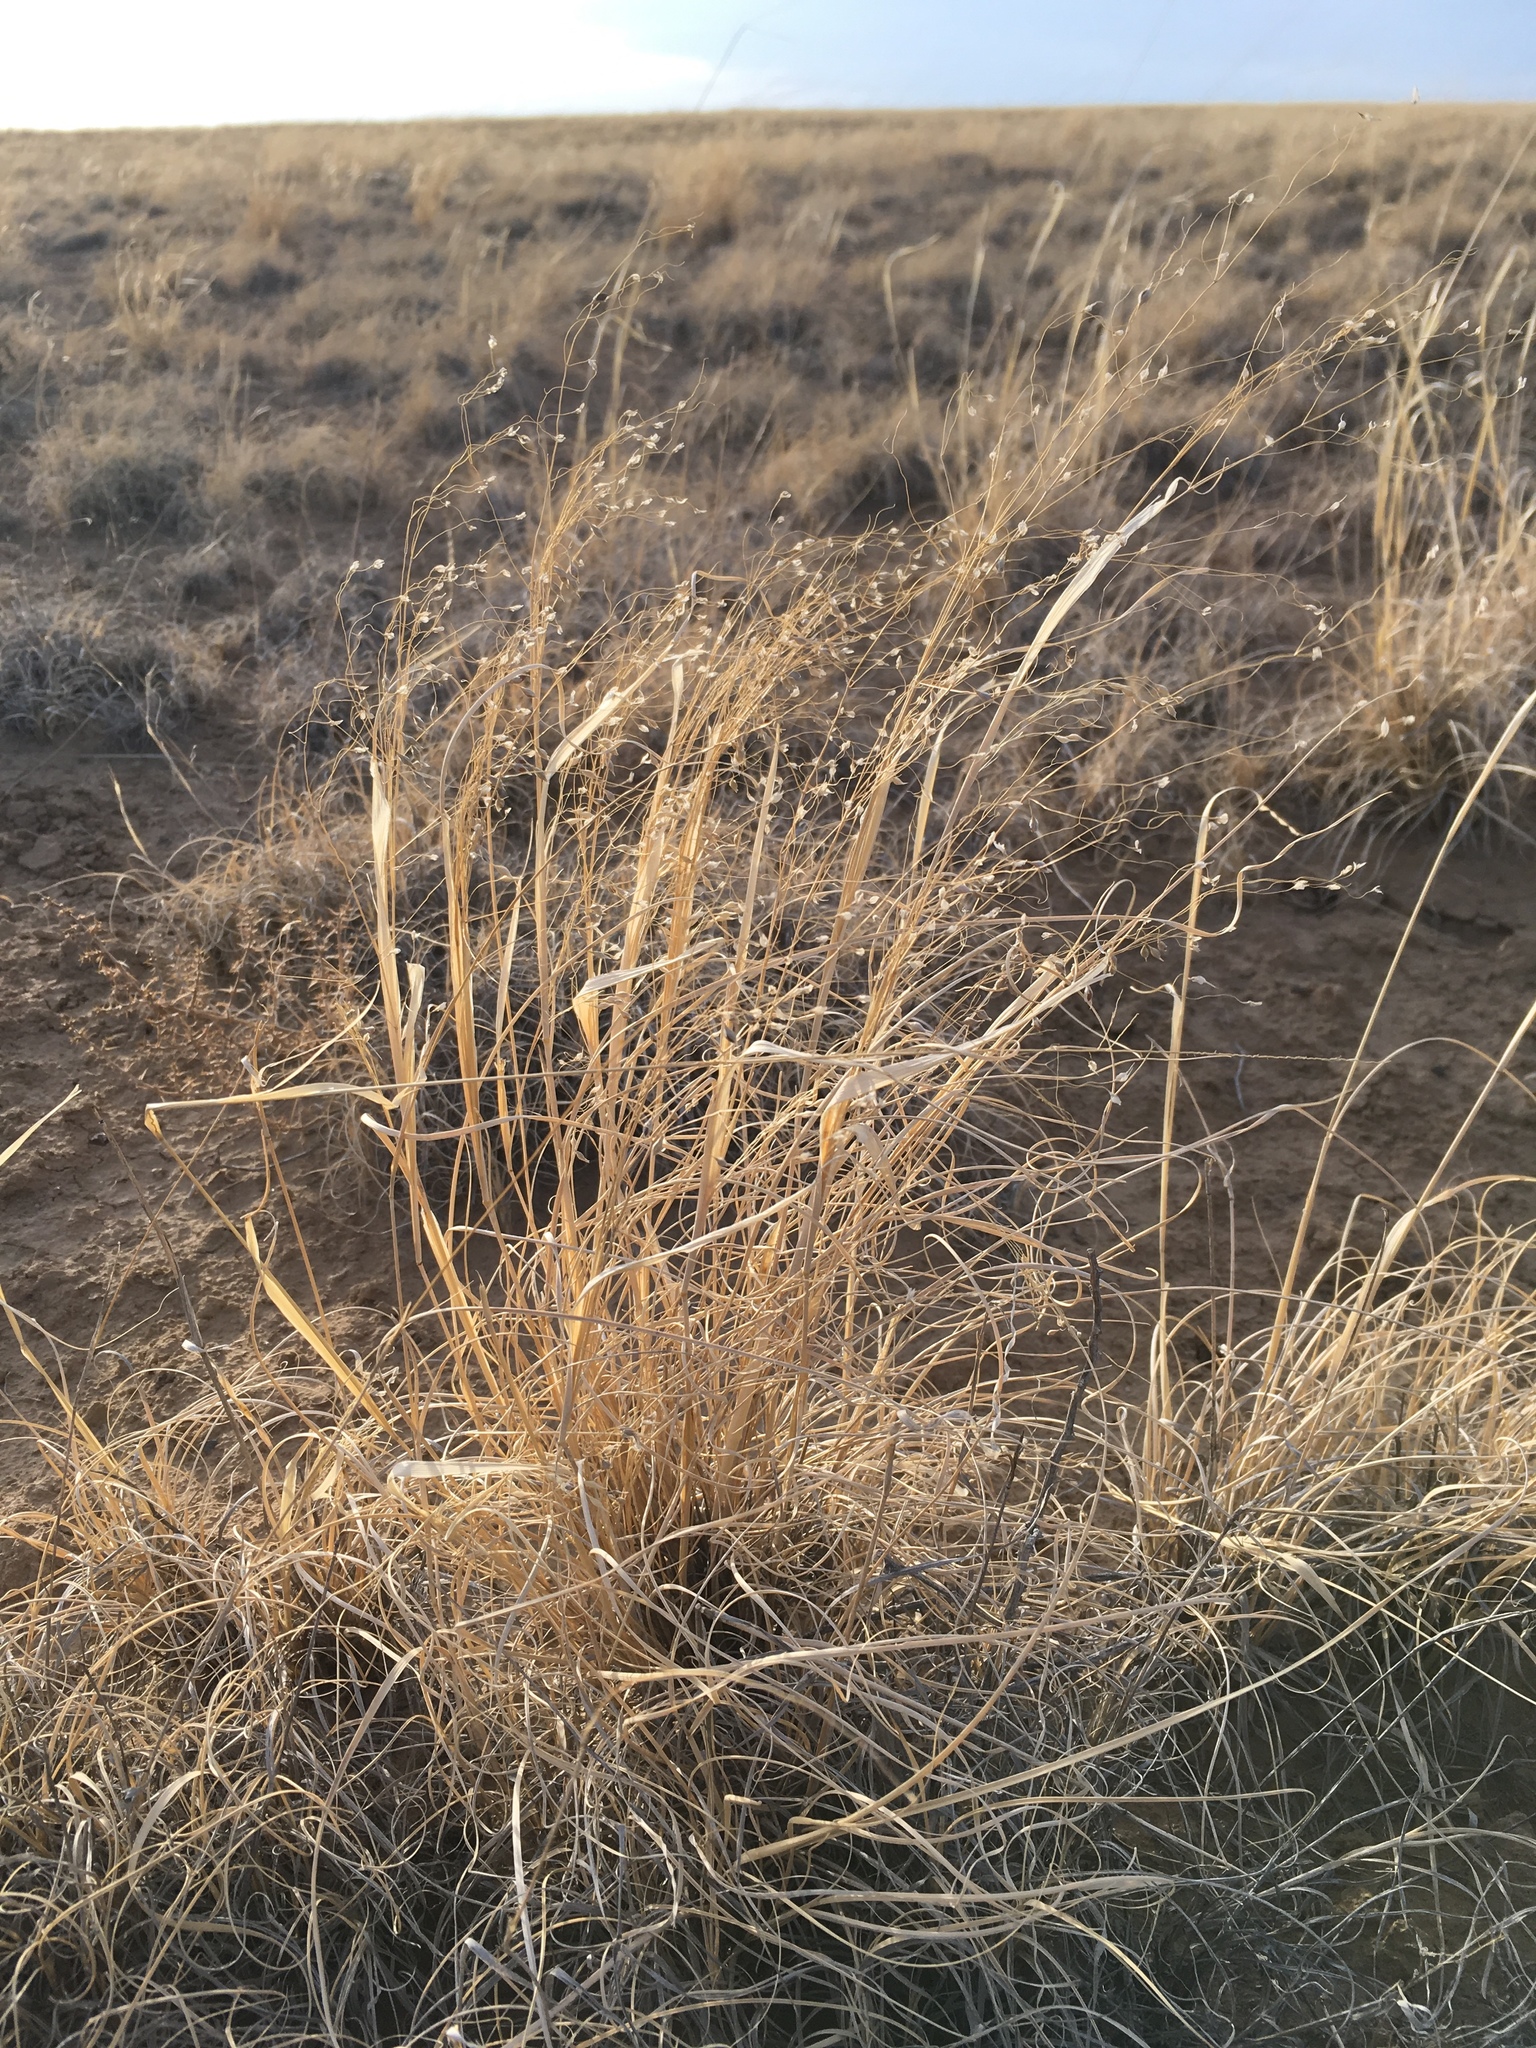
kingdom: Plantae
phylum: Tracheophyta
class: Liliopsida
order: Poales
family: Poaceae
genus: Eriocoma
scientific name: Eriocoma hymenoides
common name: Indian mountain ricegrass
